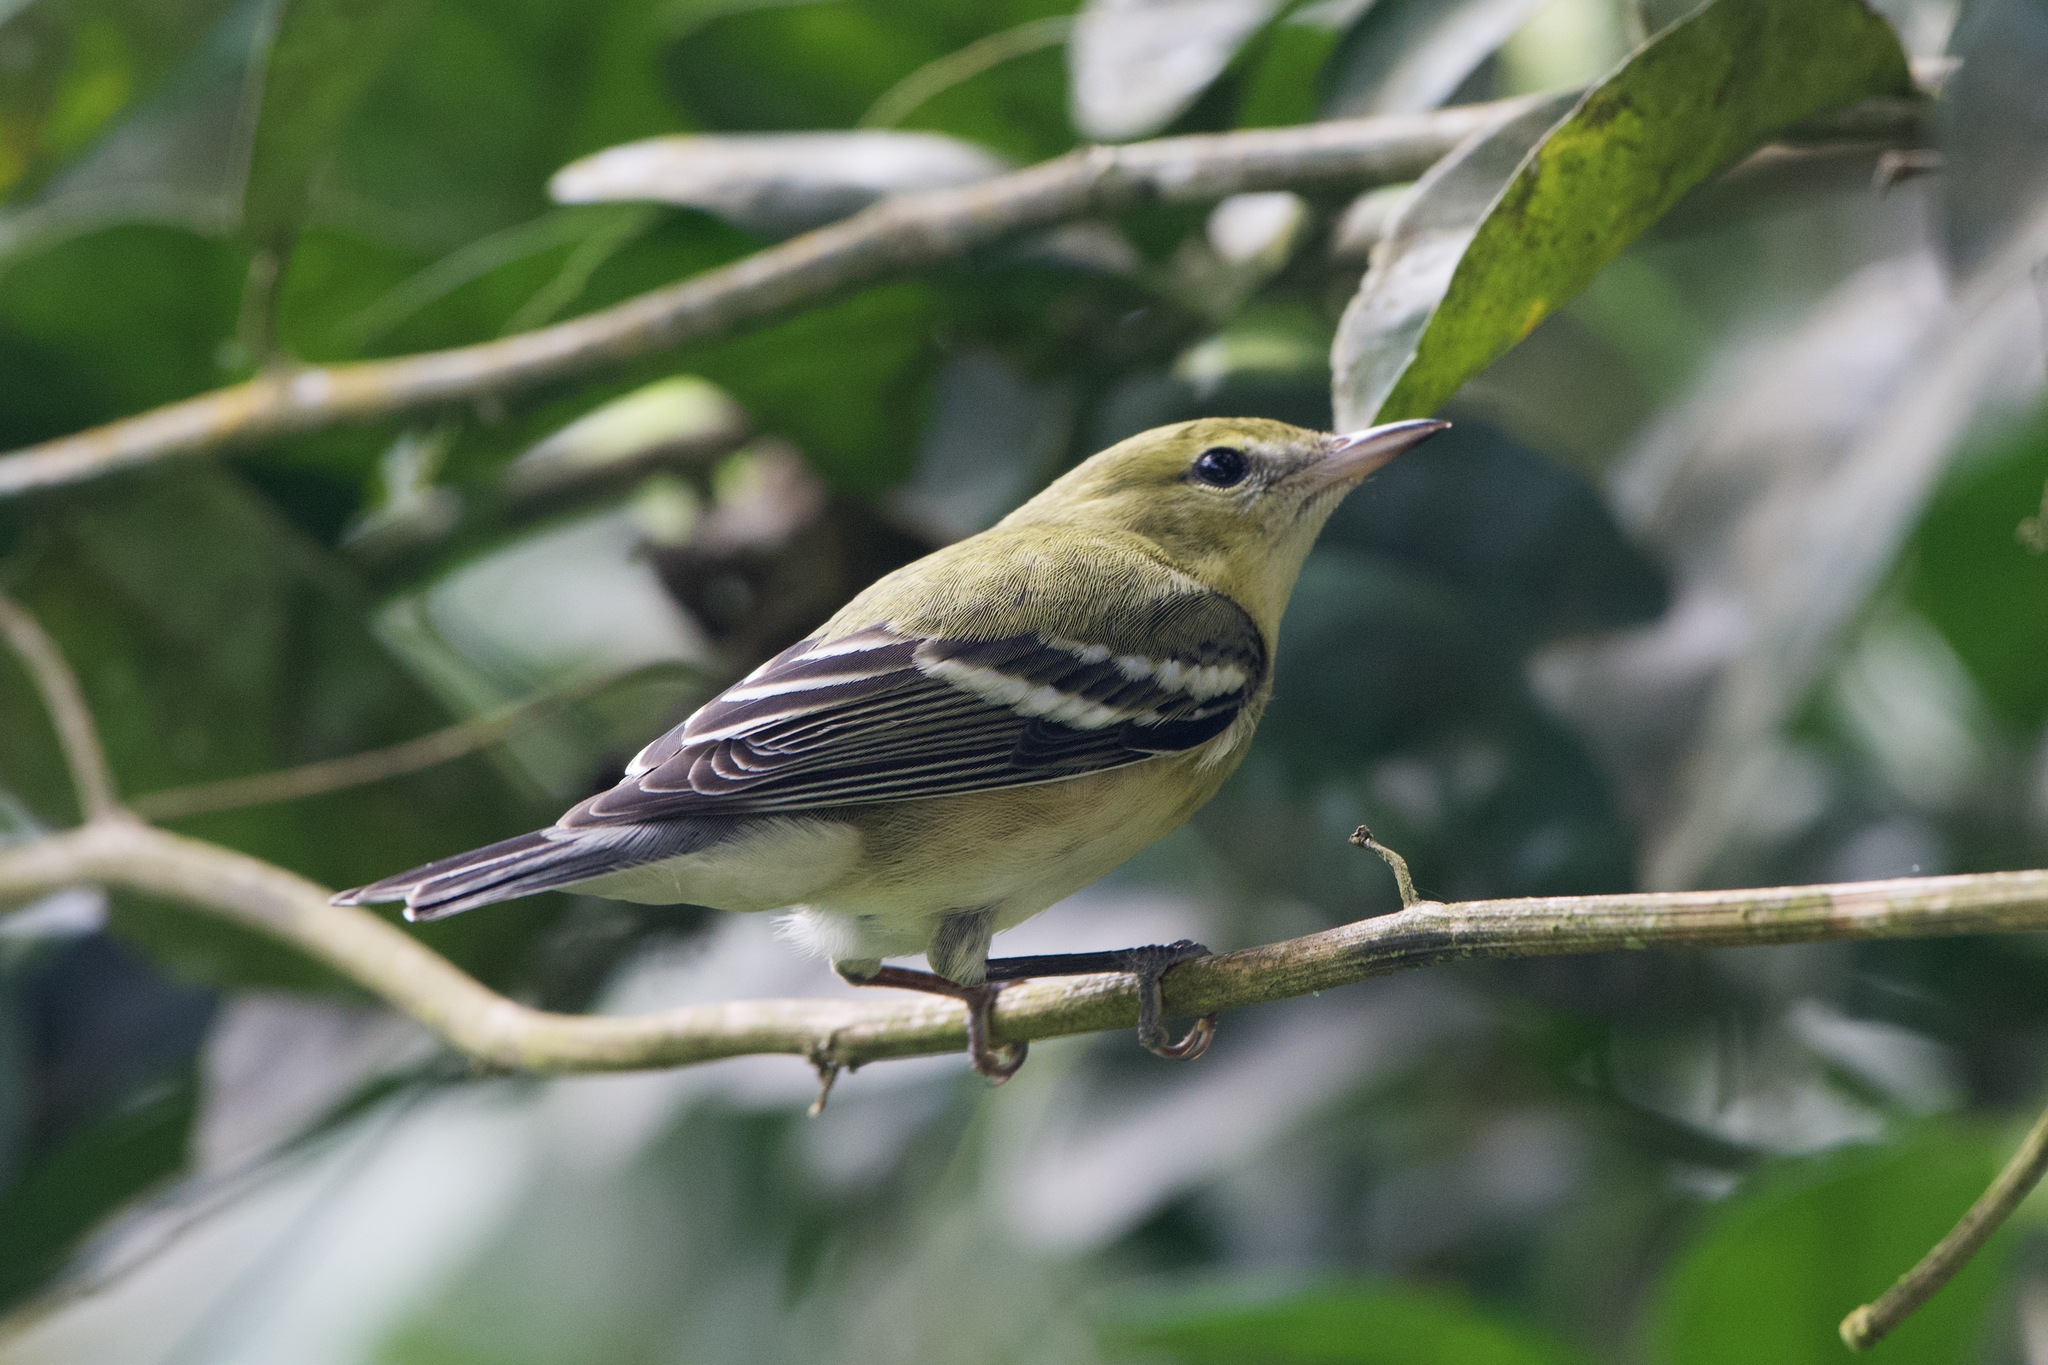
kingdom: Animalia
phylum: Chordata
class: Aves
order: Passeriformes
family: Parulidae
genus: Setophaga
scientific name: Setophaga castanea
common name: Bay-breasted warbler
